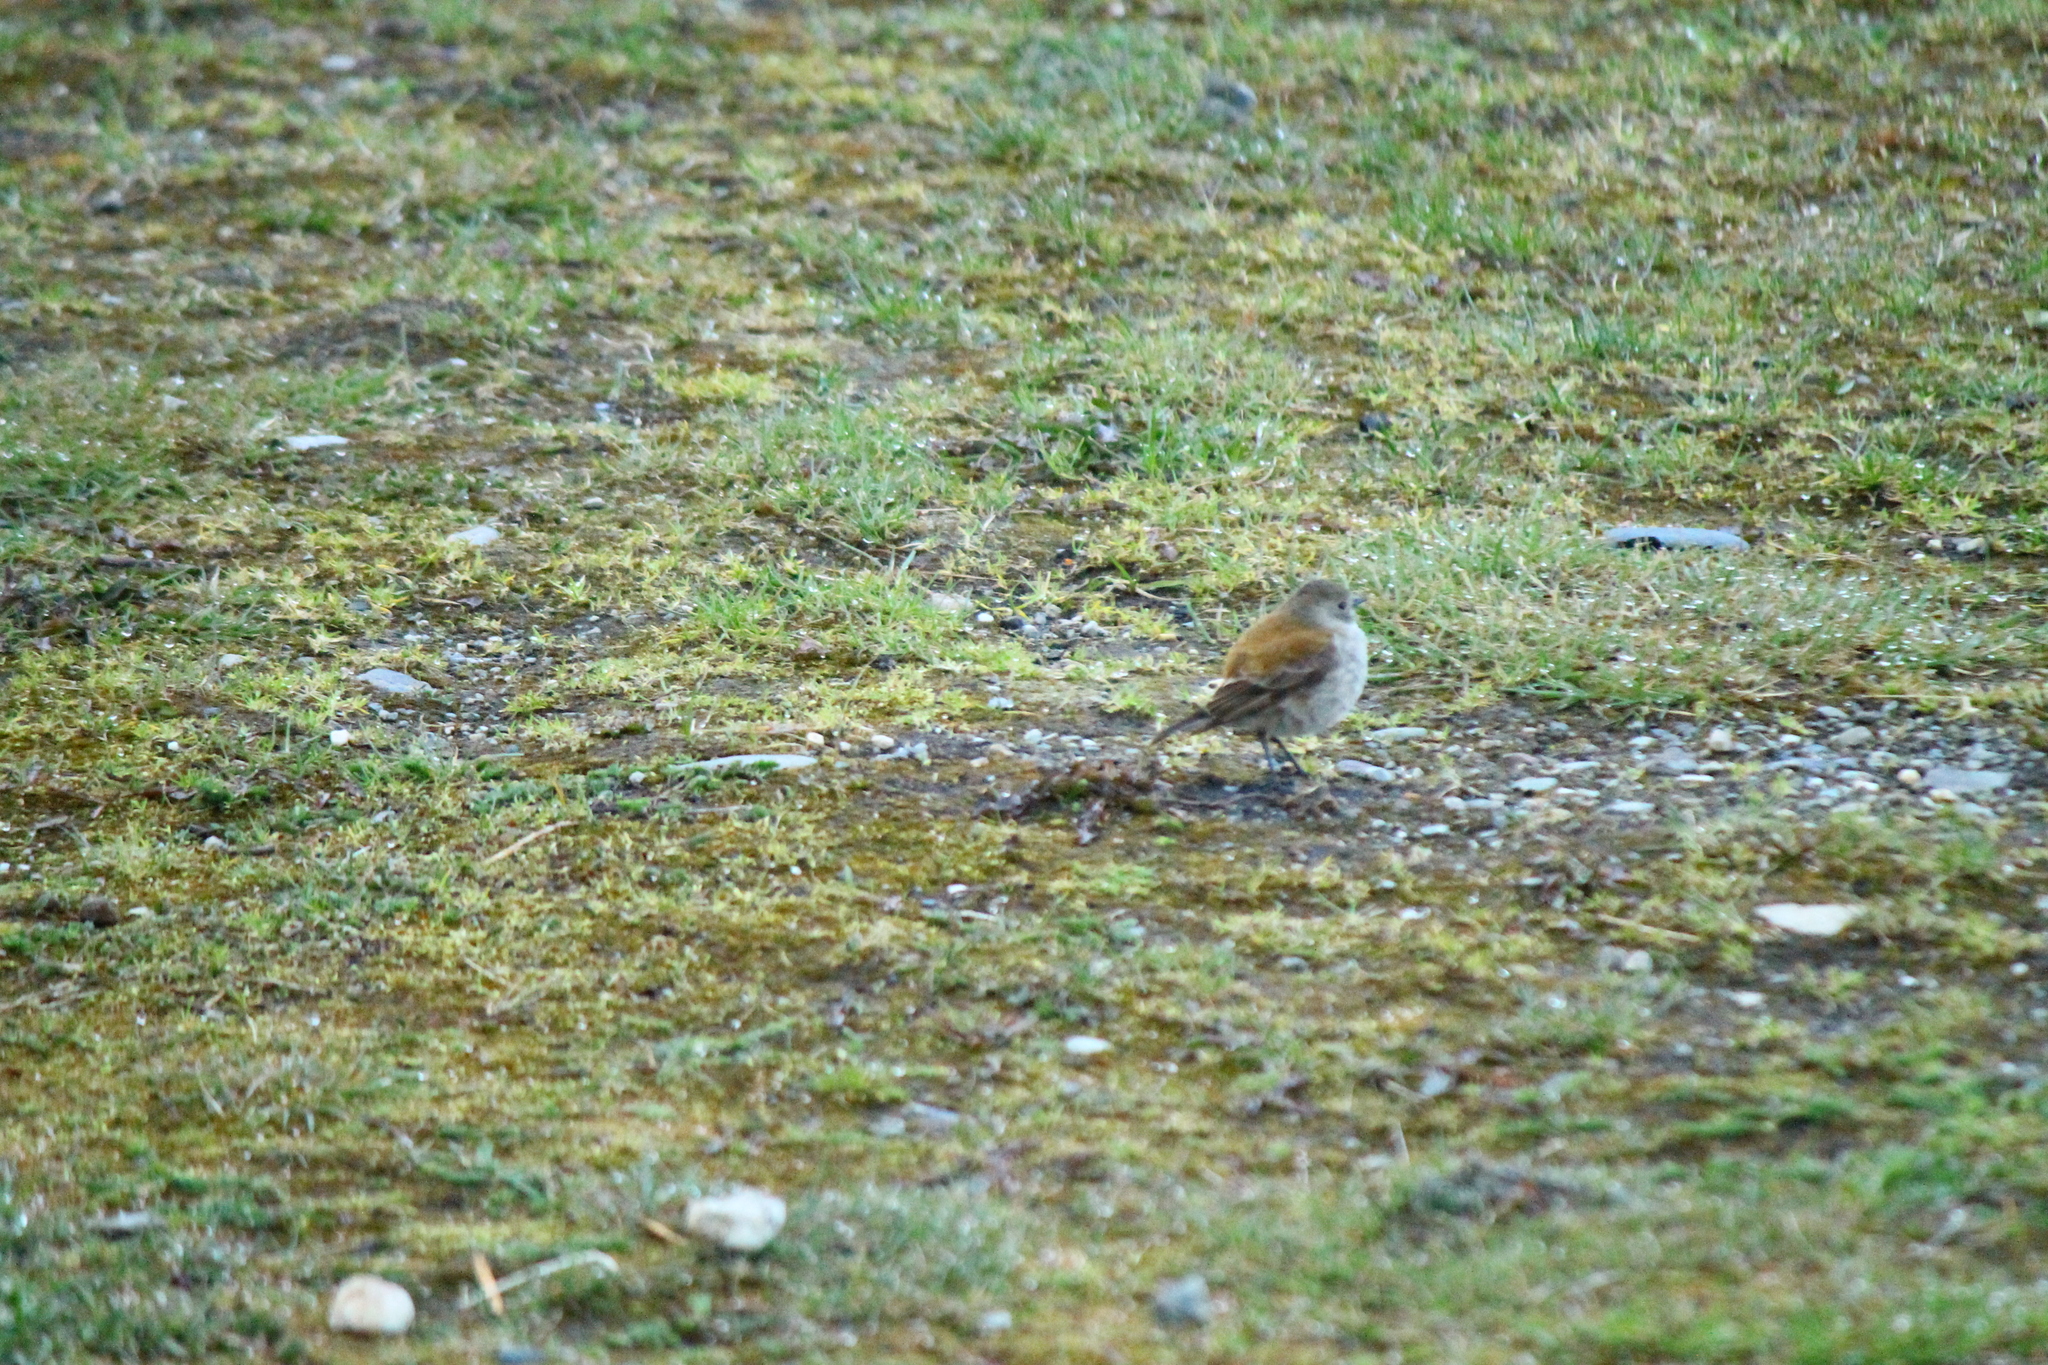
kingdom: Animalia
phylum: Chordata
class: Aves
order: Passeriformes
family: Tyrannidae
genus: Lessonia
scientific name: Lessonia rufa
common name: Austral negrito
